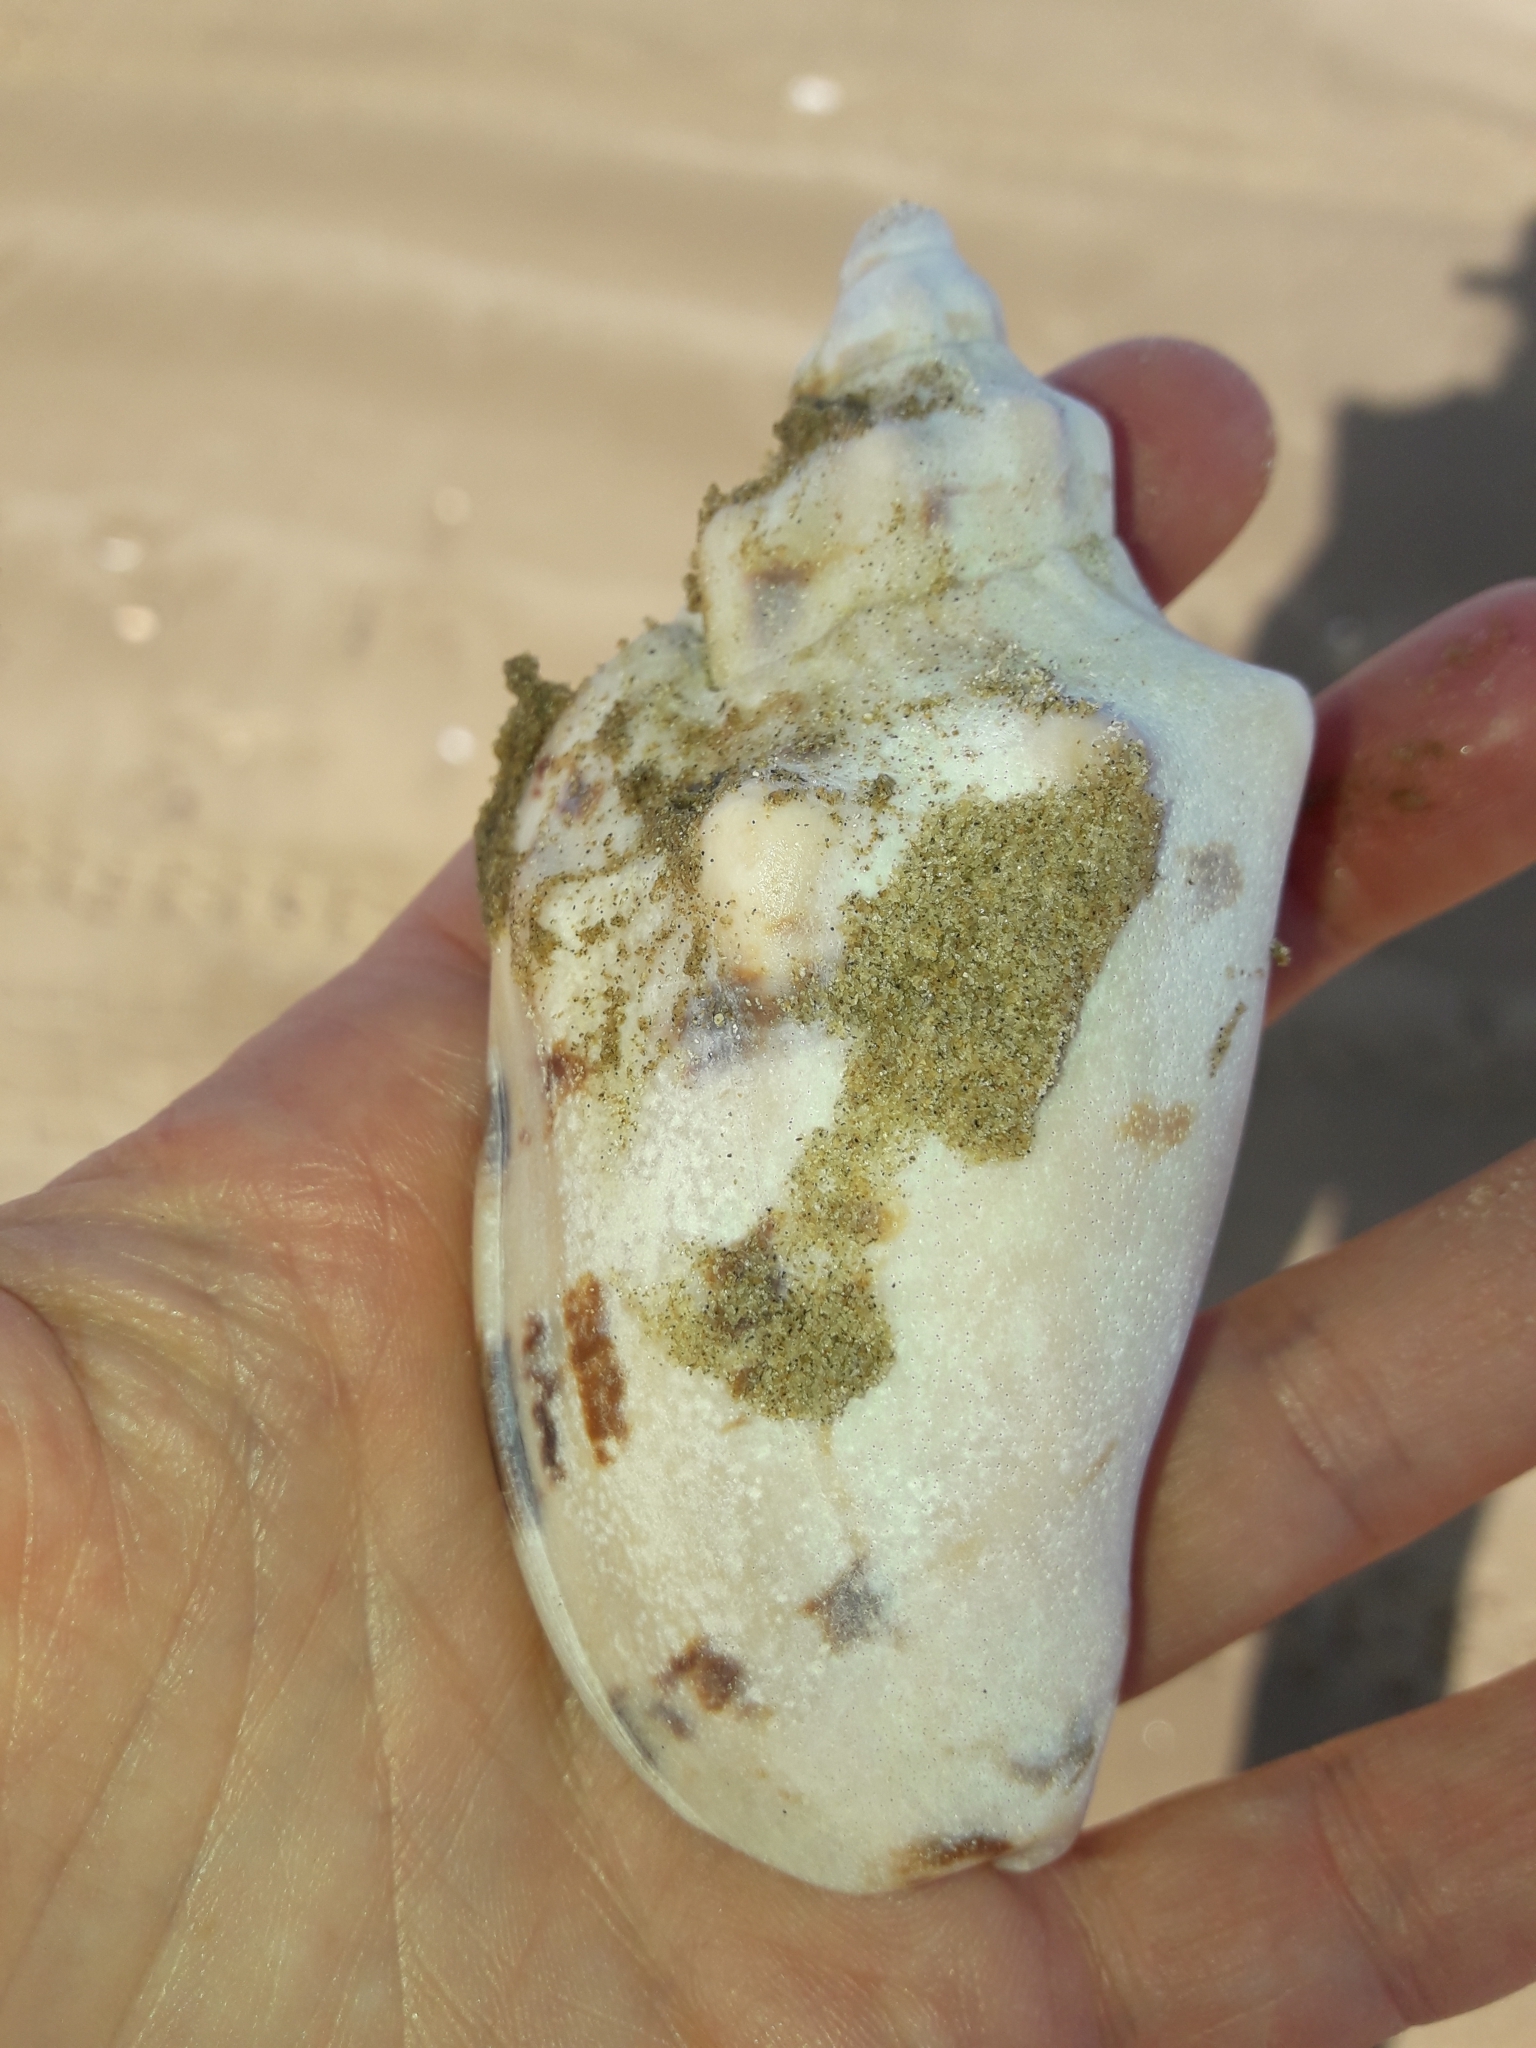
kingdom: Animalia
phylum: Mollusca
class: Gastropoda
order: Neogastropoda
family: Volutidae
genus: Alcithoe
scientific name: Alcithoe arabica
